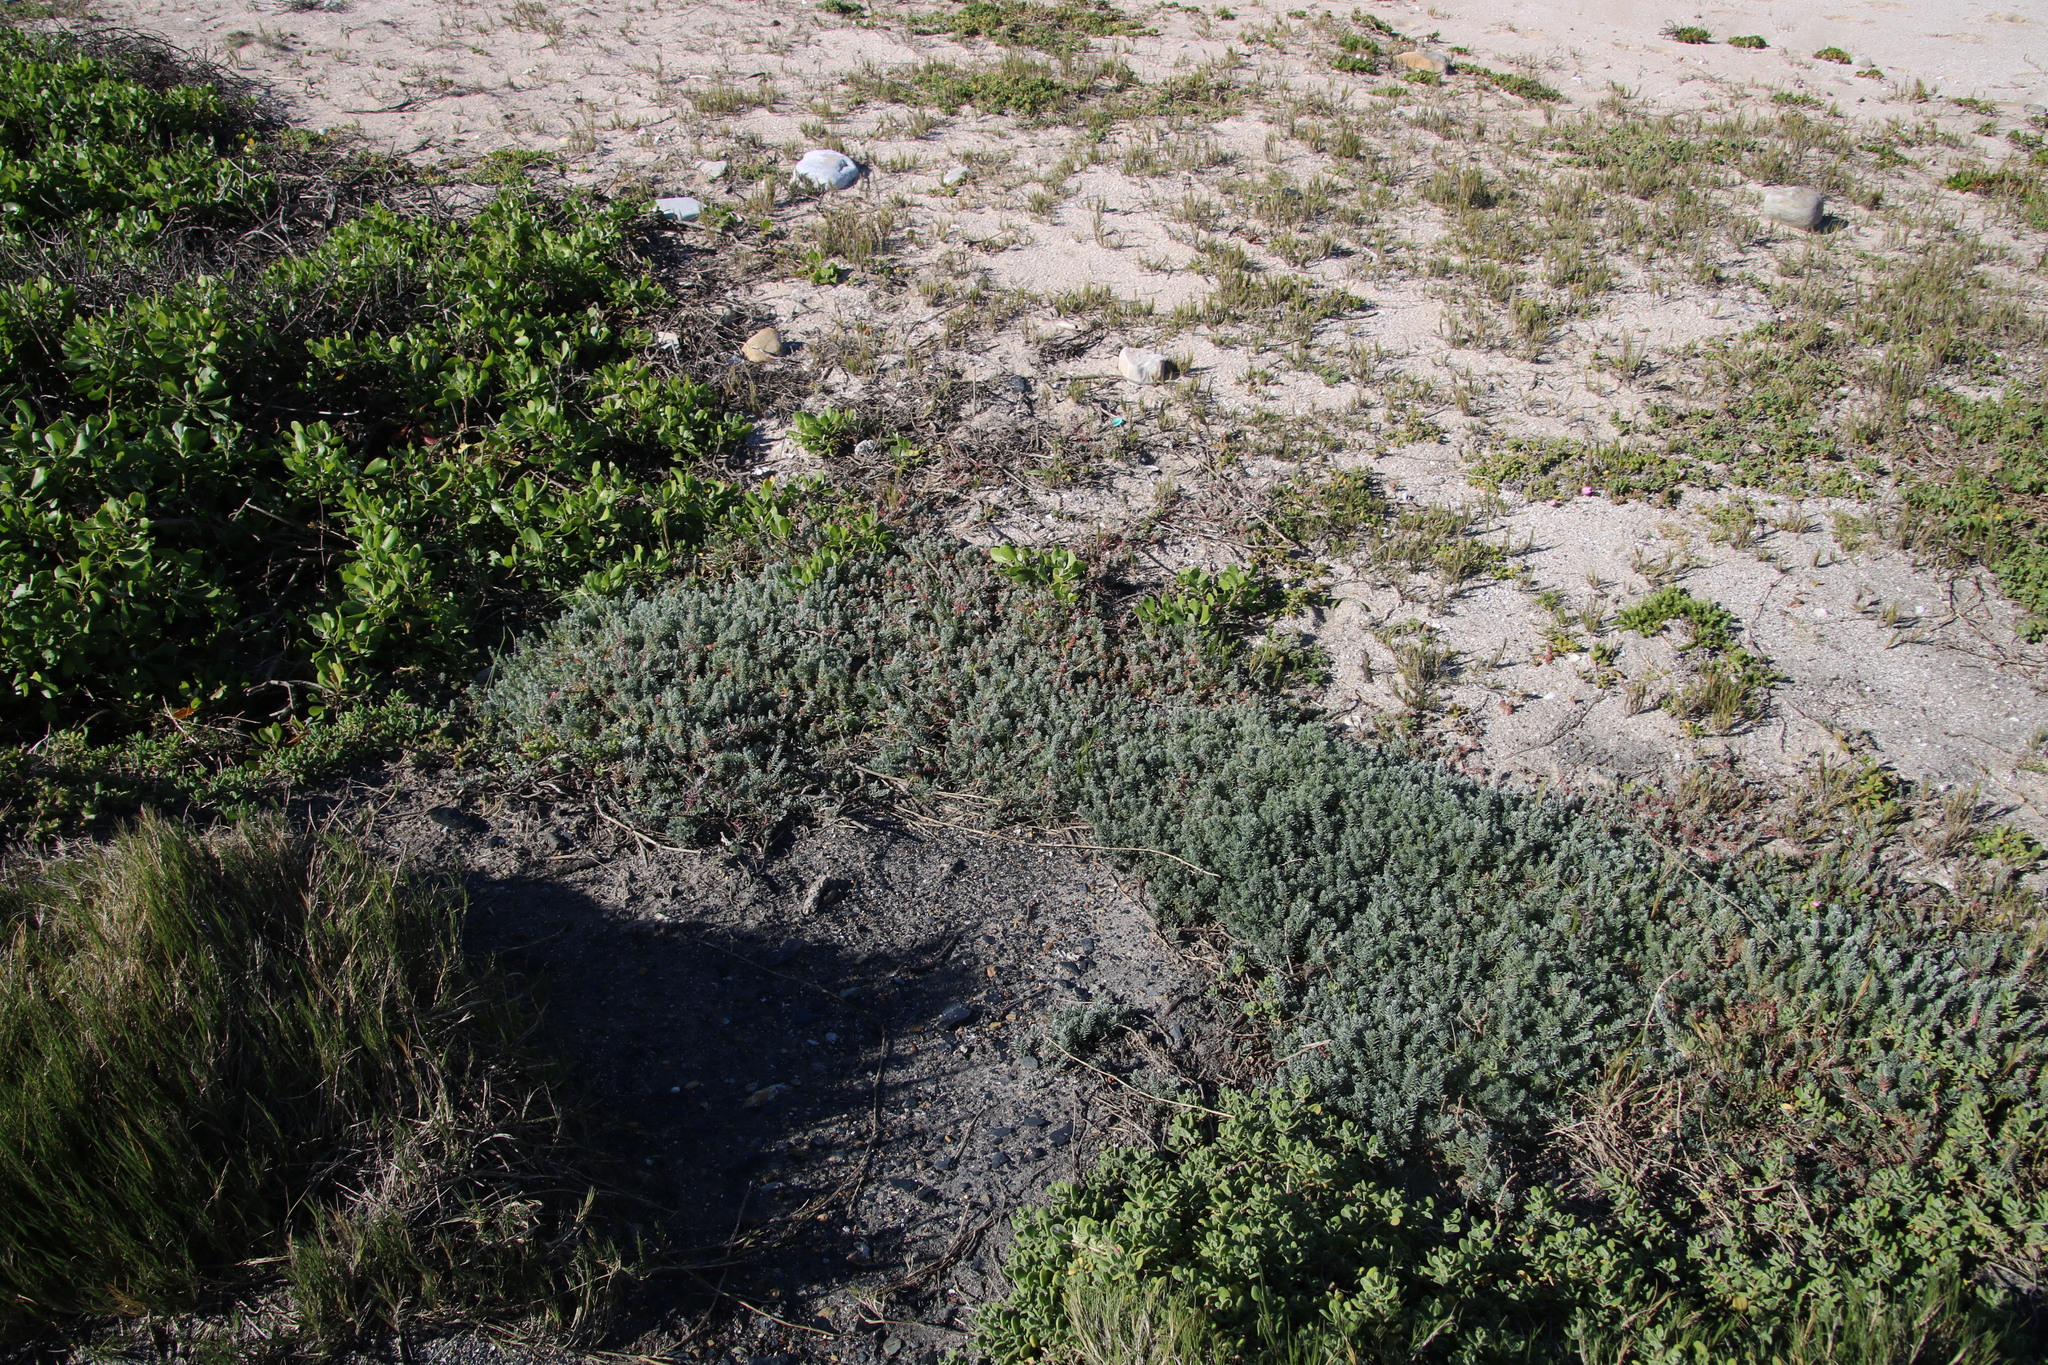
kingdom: Plantae
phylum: Tracheophyta
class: Magnoliopsida
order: Caryophyllales
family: Amaranthaceae
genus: Chenolea
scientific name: Chenolea diffusa
